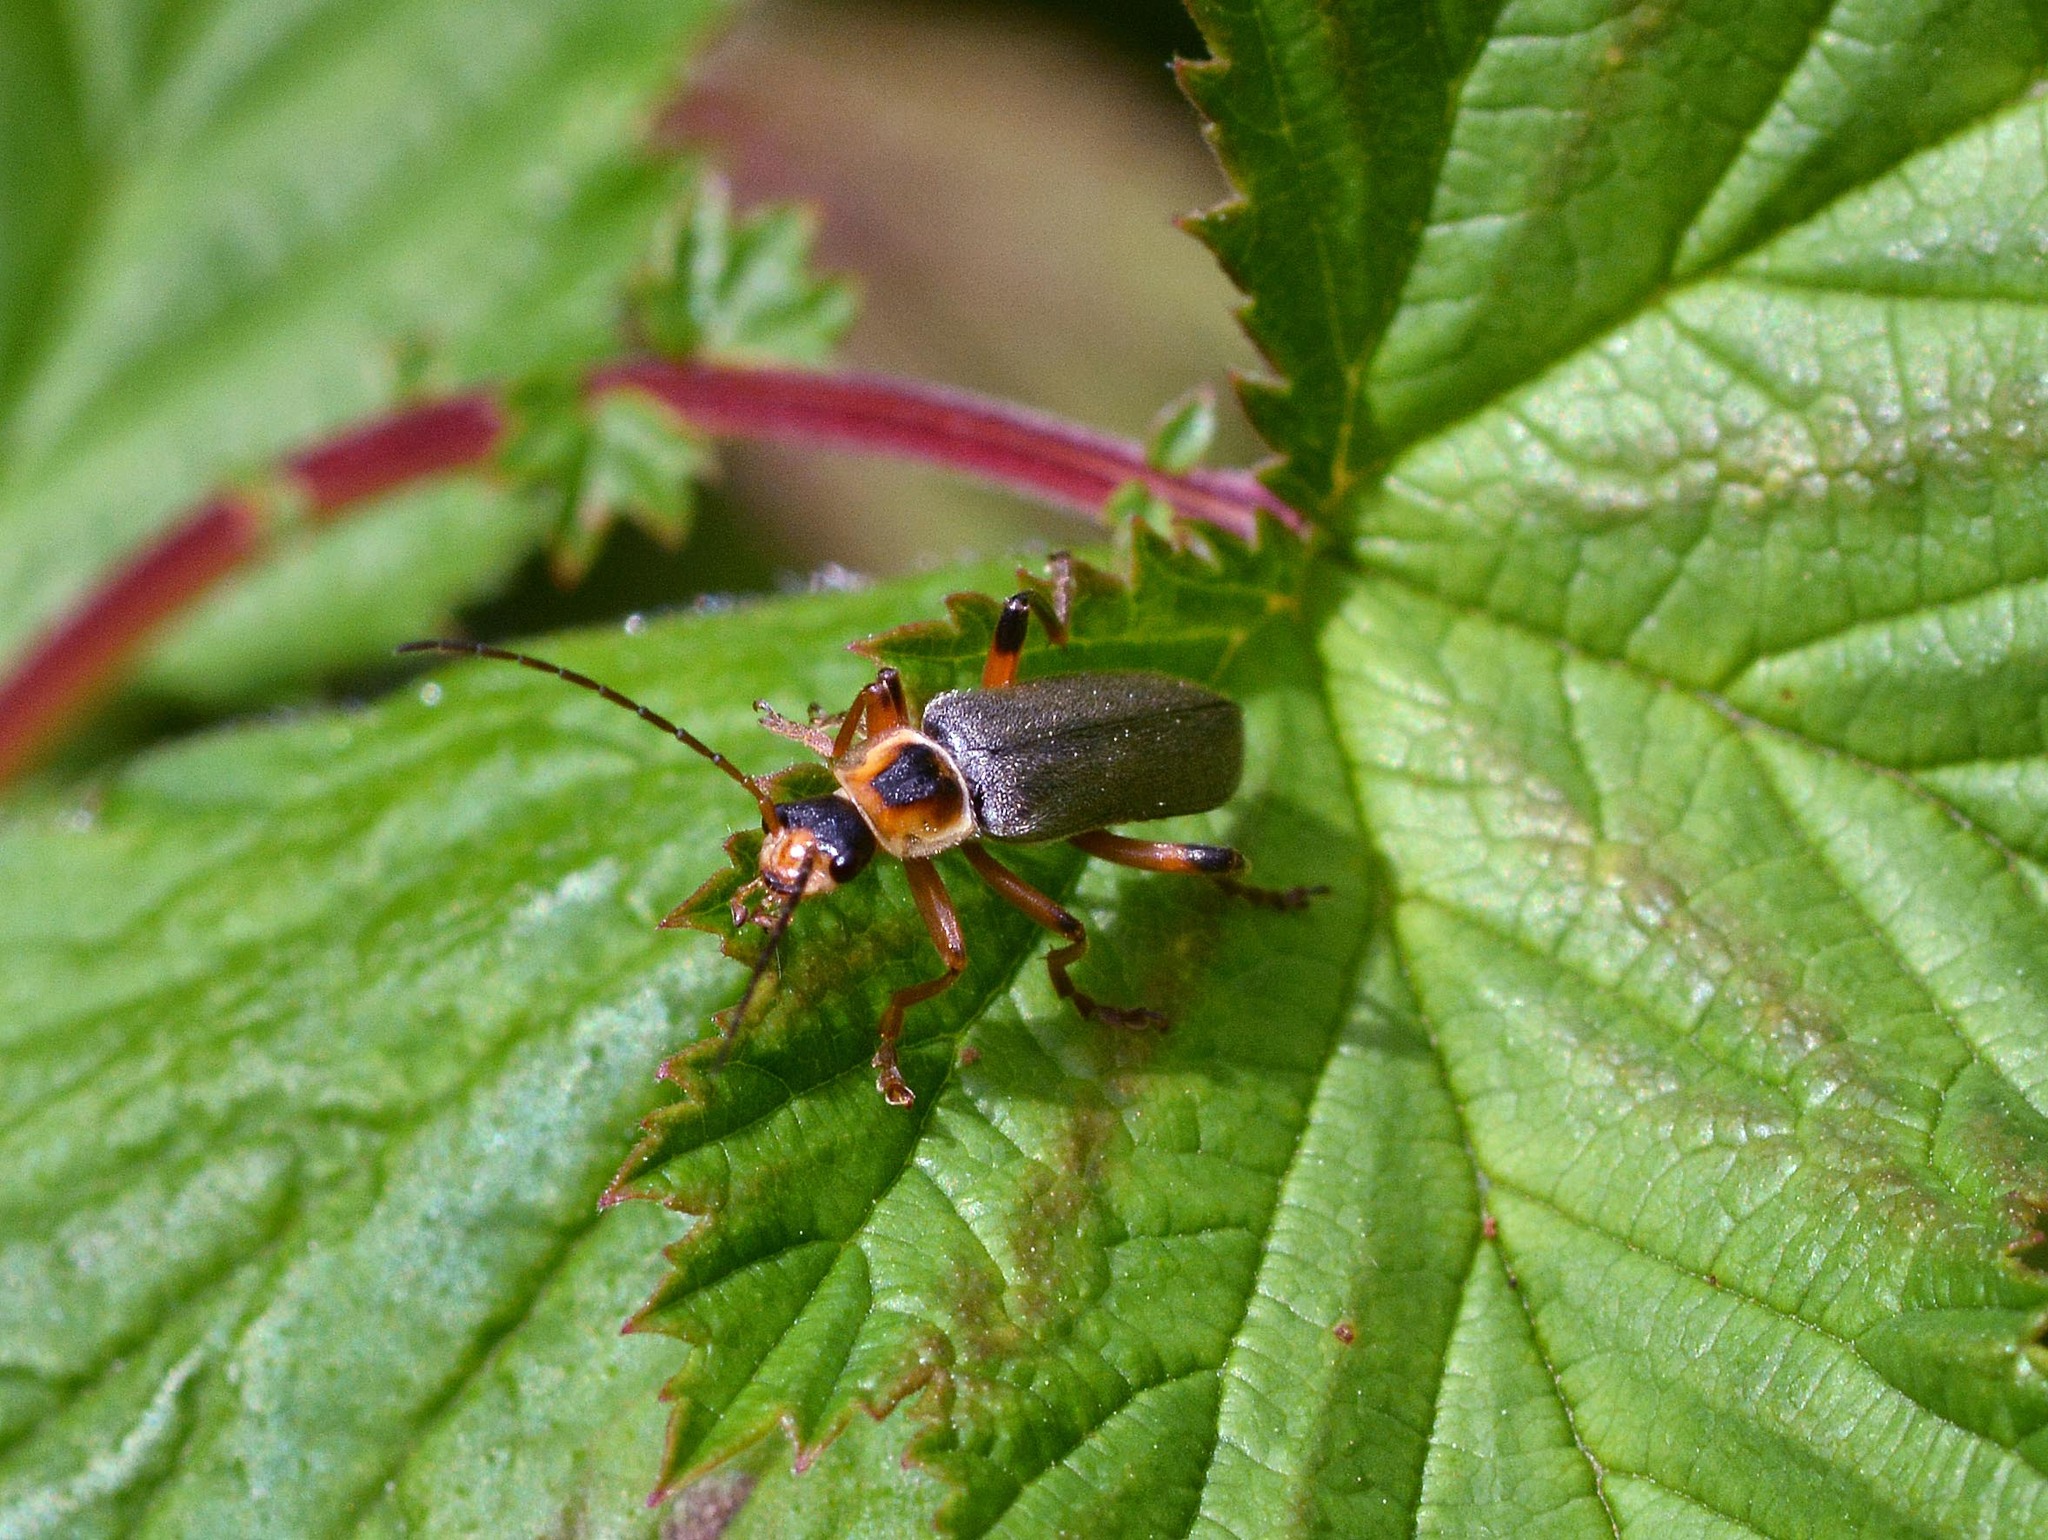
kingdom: Animalia
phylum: Arthropoda
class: Insecta
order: Coleoptera
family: Cantharidae
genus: Cantharis
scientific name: Cantharis nigricans
